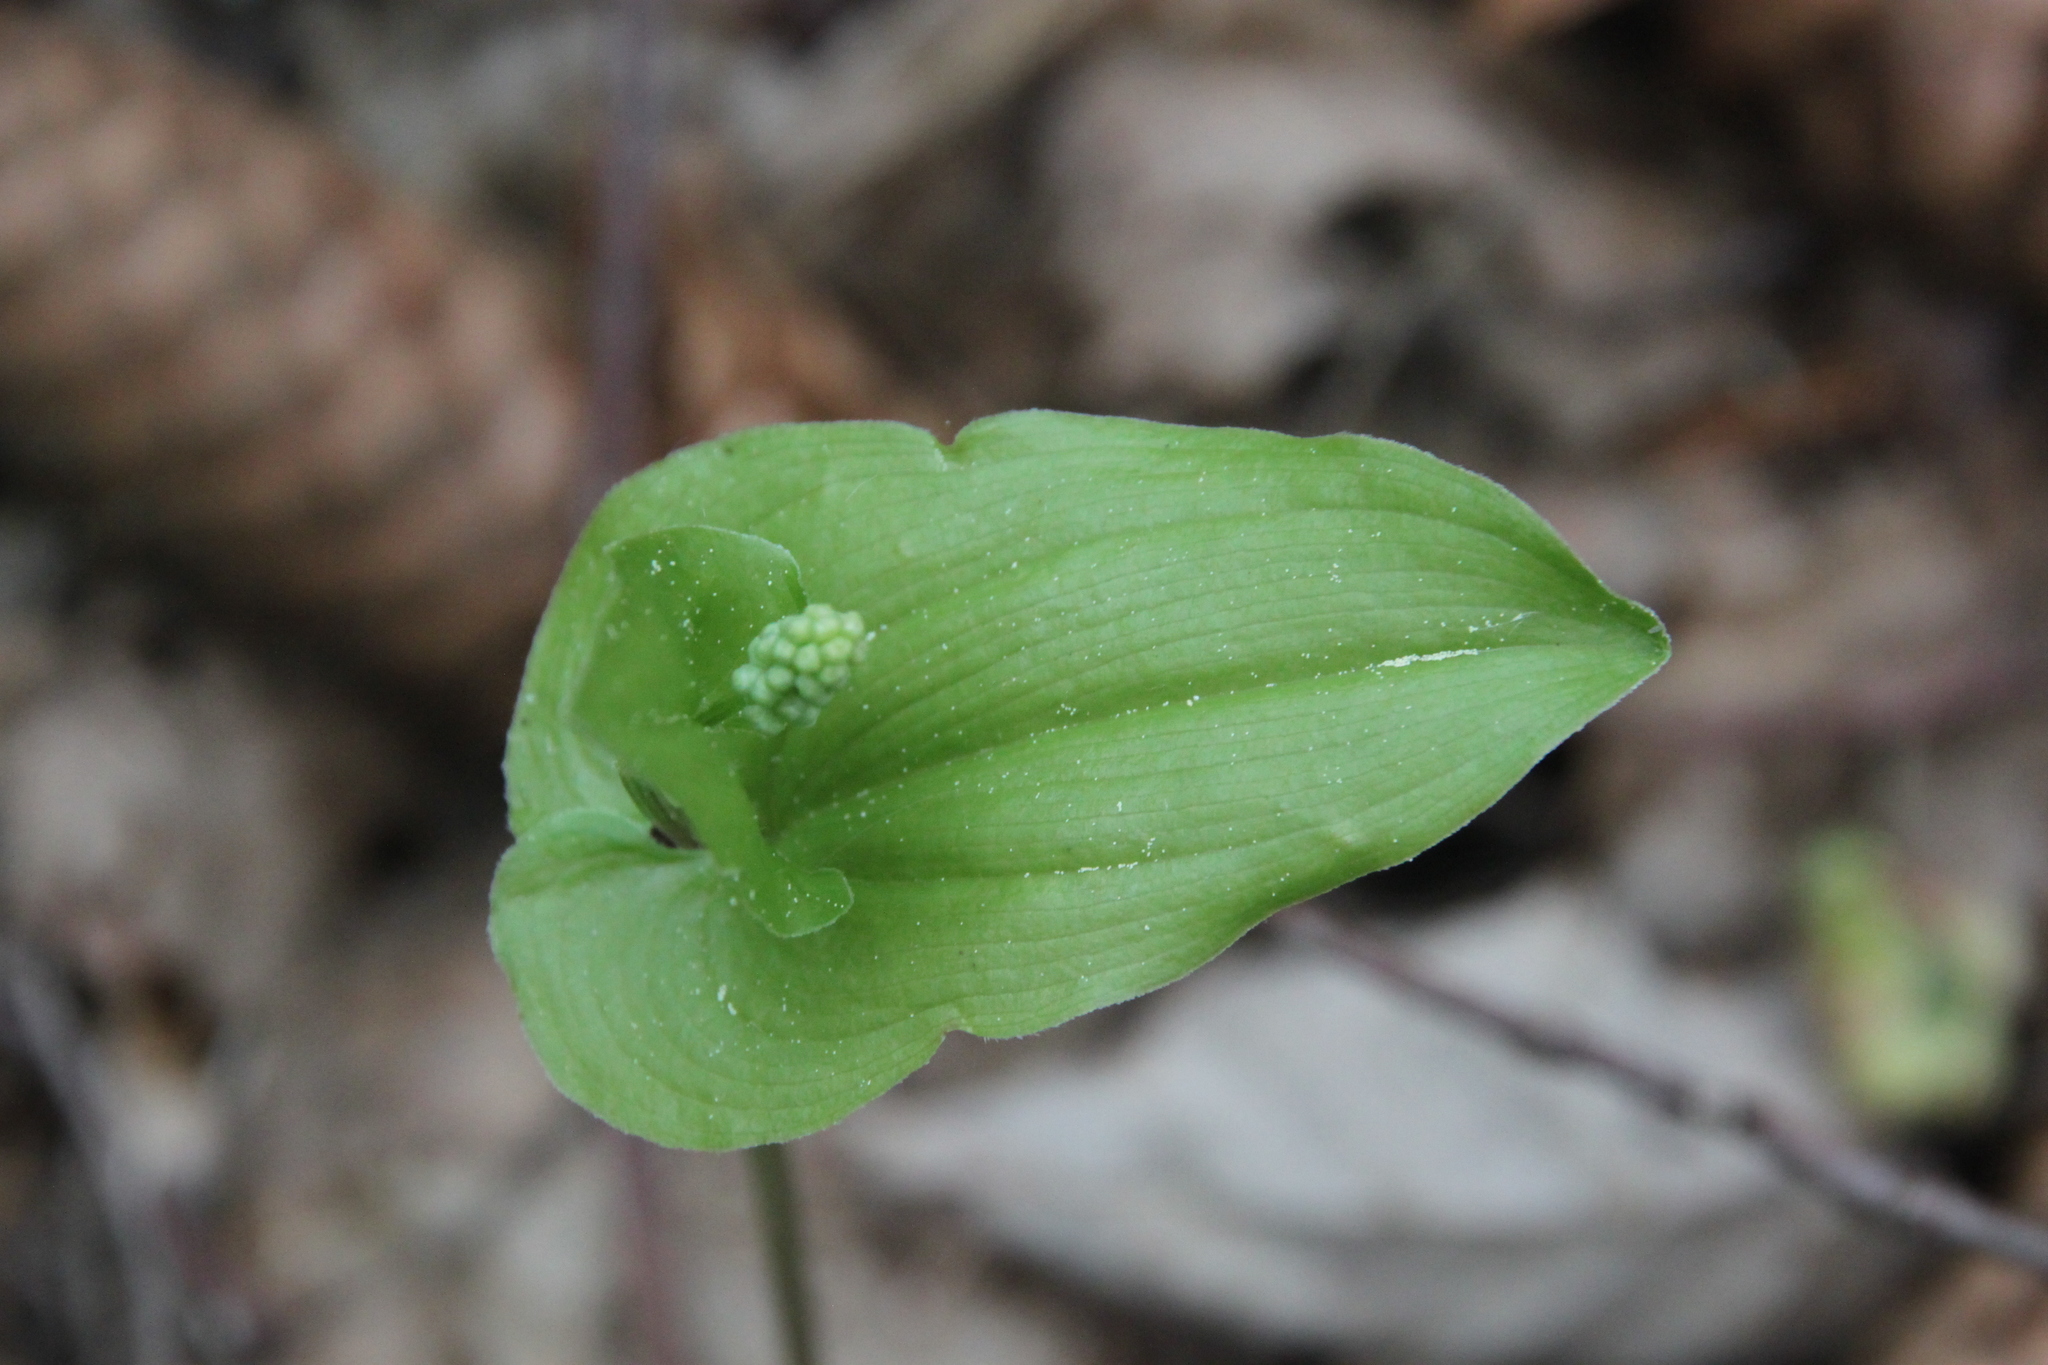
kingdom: Plantae
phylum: Tracheophyta
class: Liliopsida
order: Asparagales
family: Asparagaceae
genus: Maianthemum
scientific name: Maianthemum bifolium
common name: May lily
